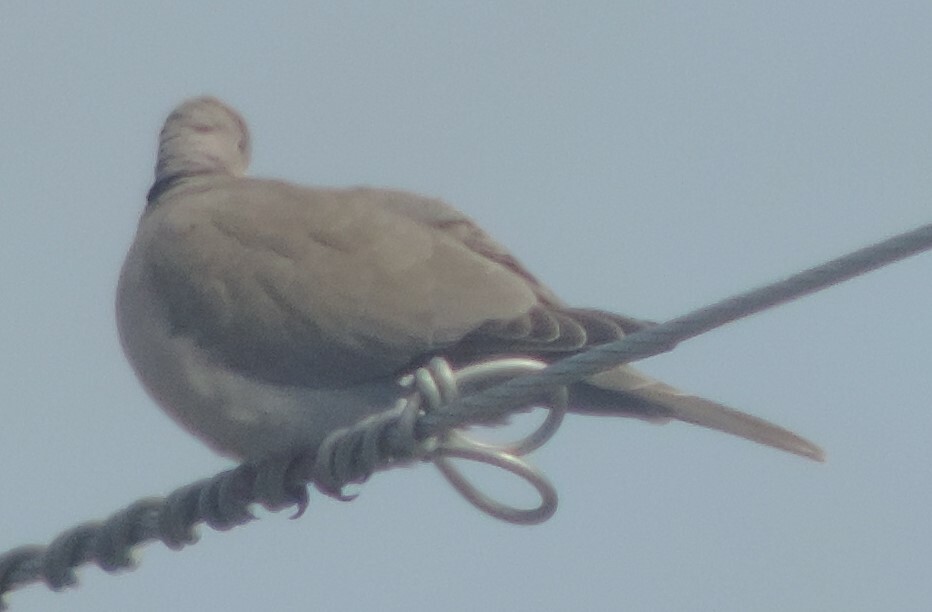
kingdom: Animalia
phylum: Chordata
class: Aves
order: Columbiformes
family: Columbidae
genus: Streptopelia
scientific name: Streptopelia decaocto
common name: Eurasian collared dove
